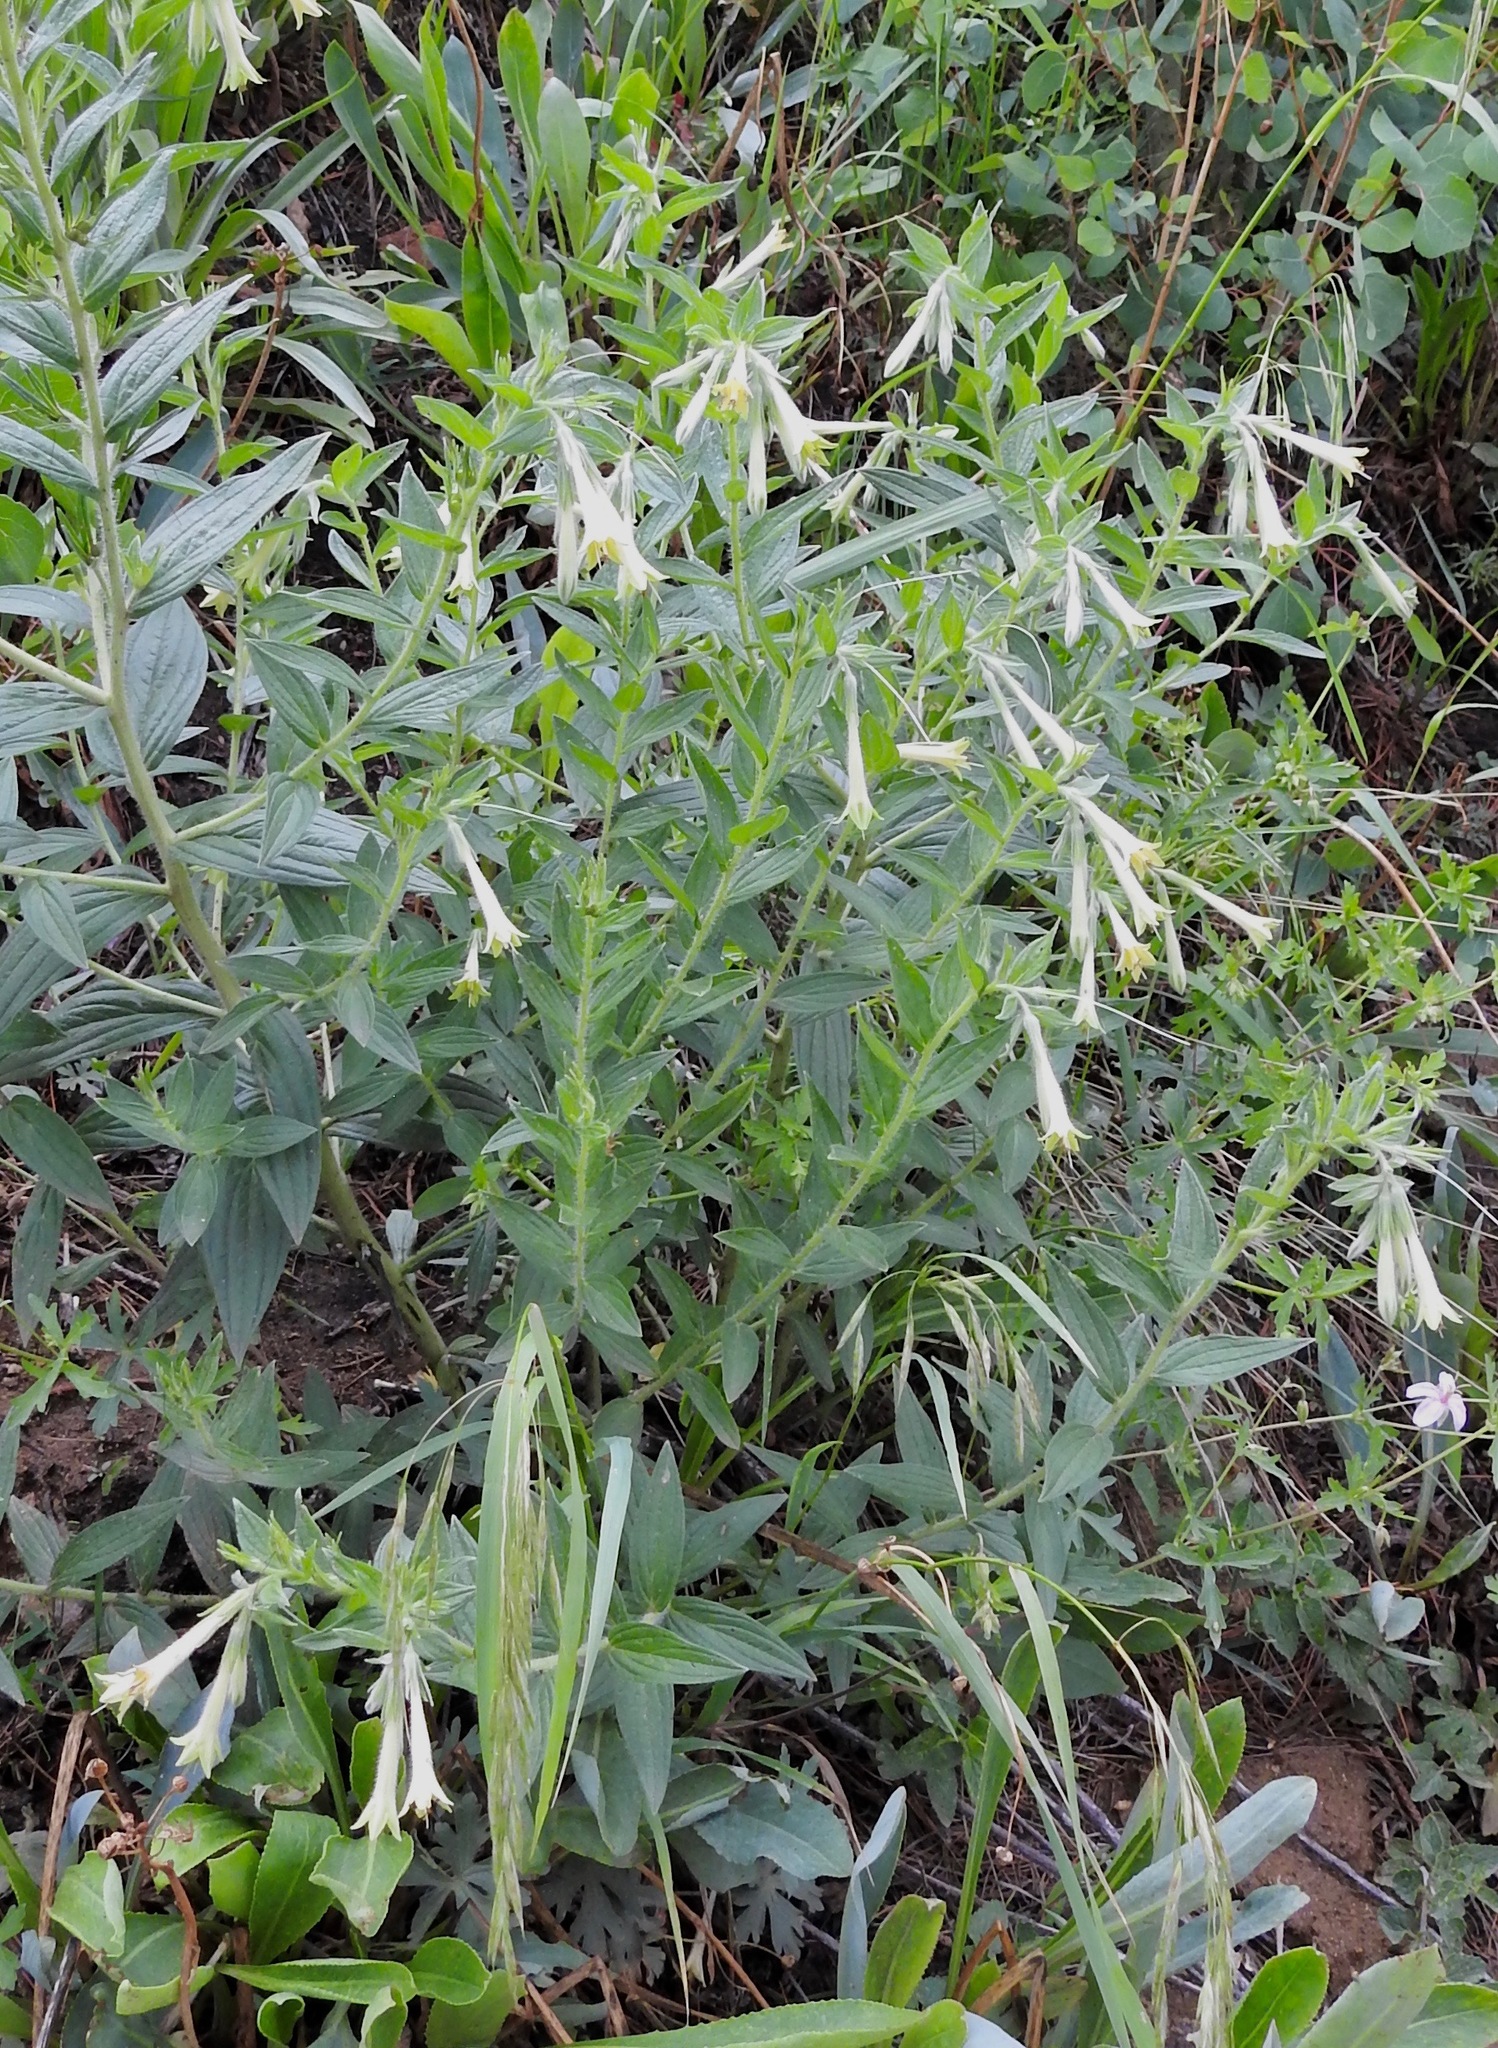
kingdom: Plantae
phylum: Tracheophyta
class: Magnoliopsida
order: Boraginales
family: Boraginaceae
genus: Lithospermum
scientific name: Lithospermum thurberi
